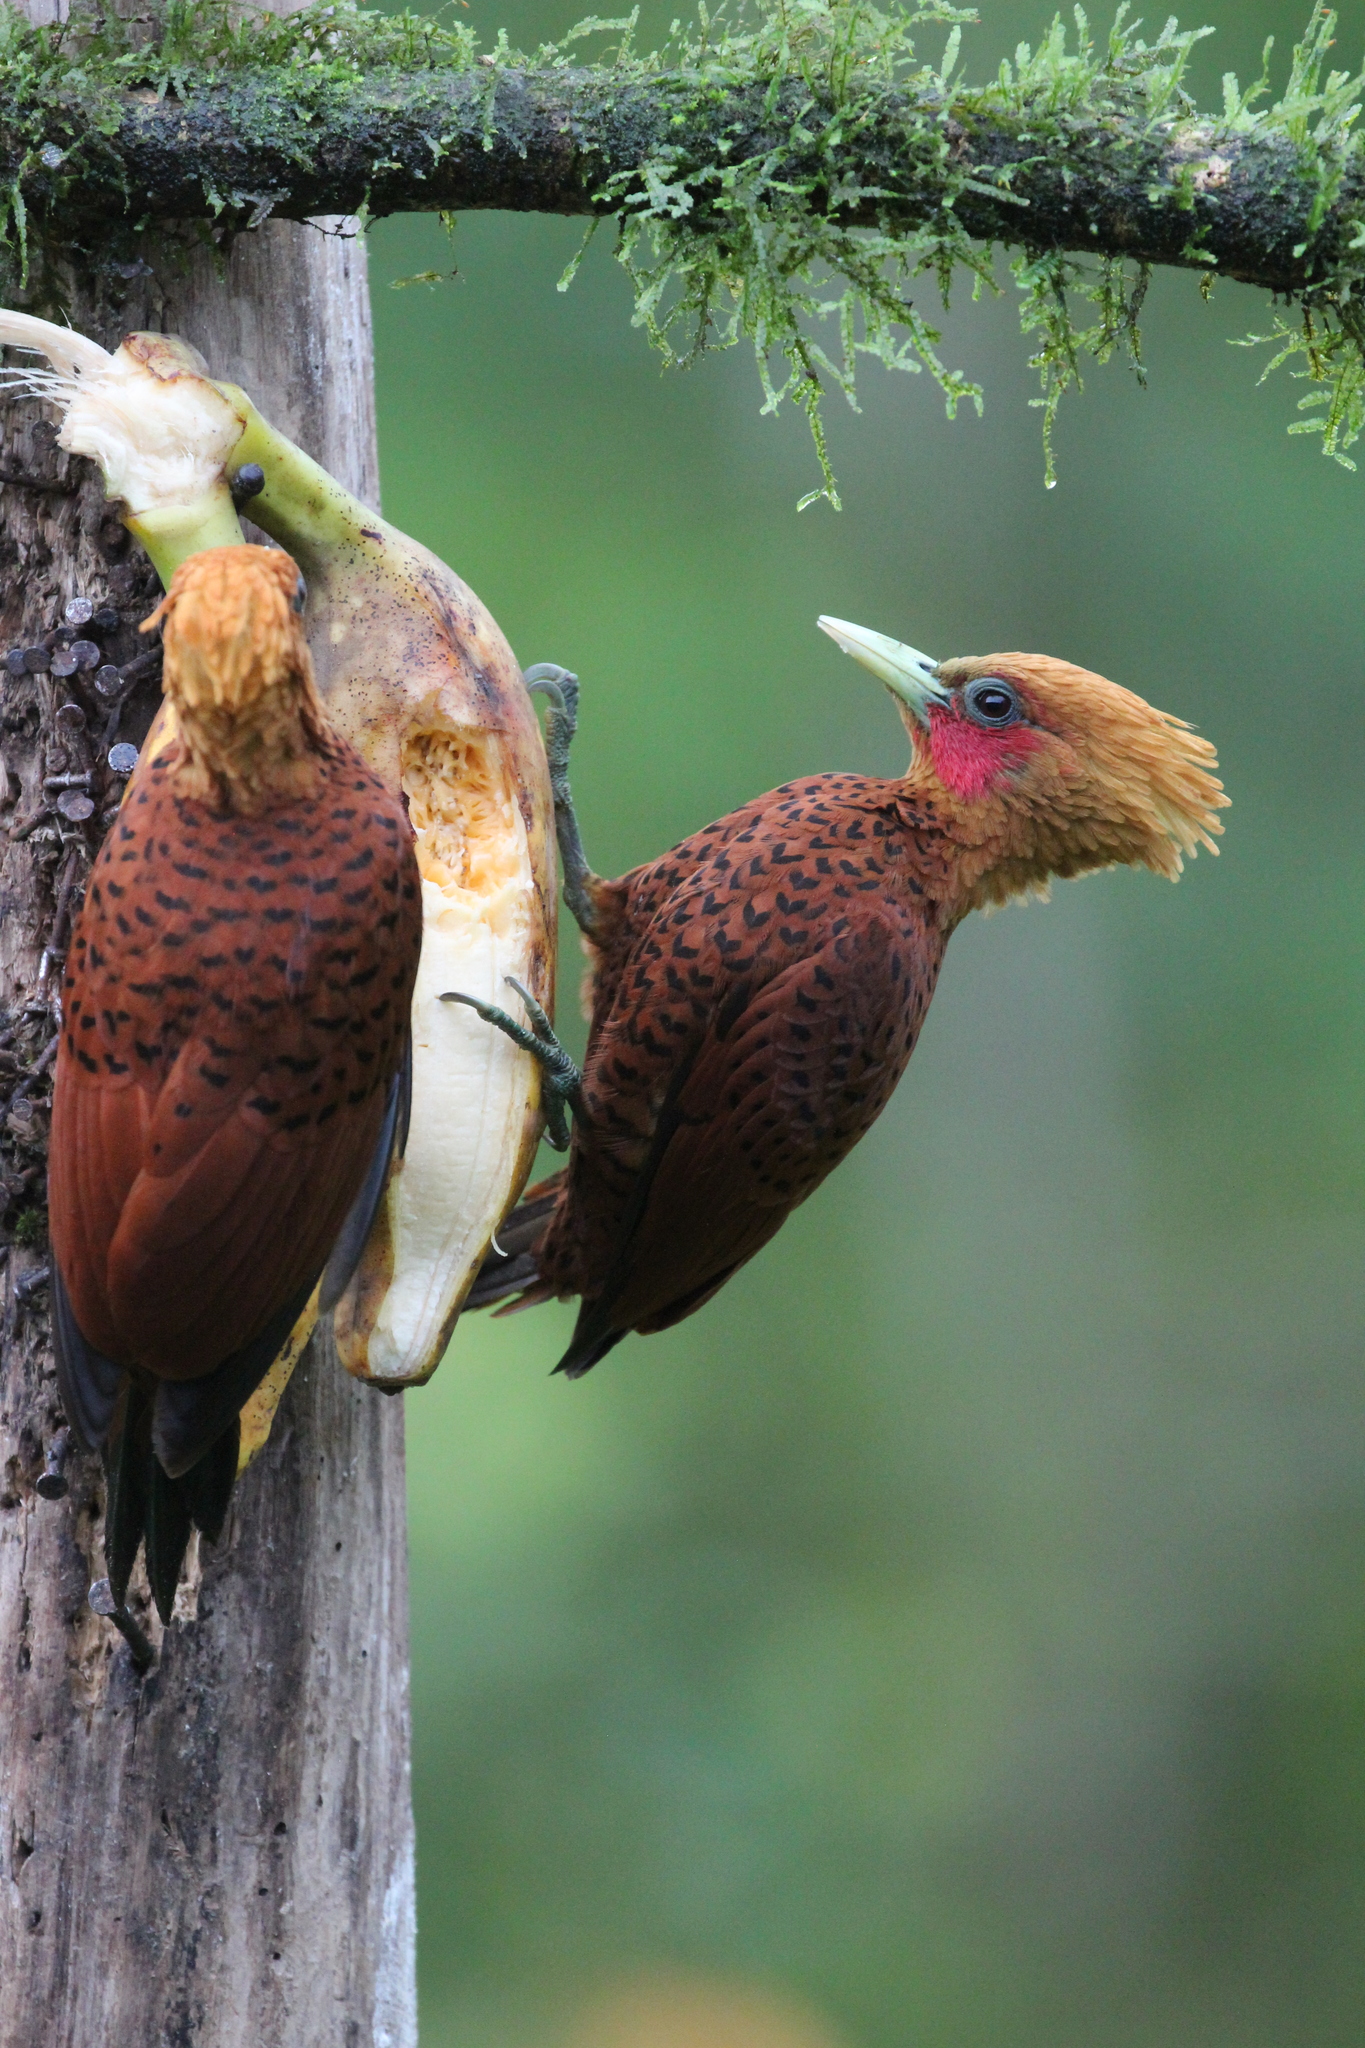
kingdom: Animalia
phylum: Chordata
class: Aves
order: Piciformes
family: Picidae
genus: Celeus
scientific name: Celeus castaneus
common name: Chestnut-colored woodpecker
